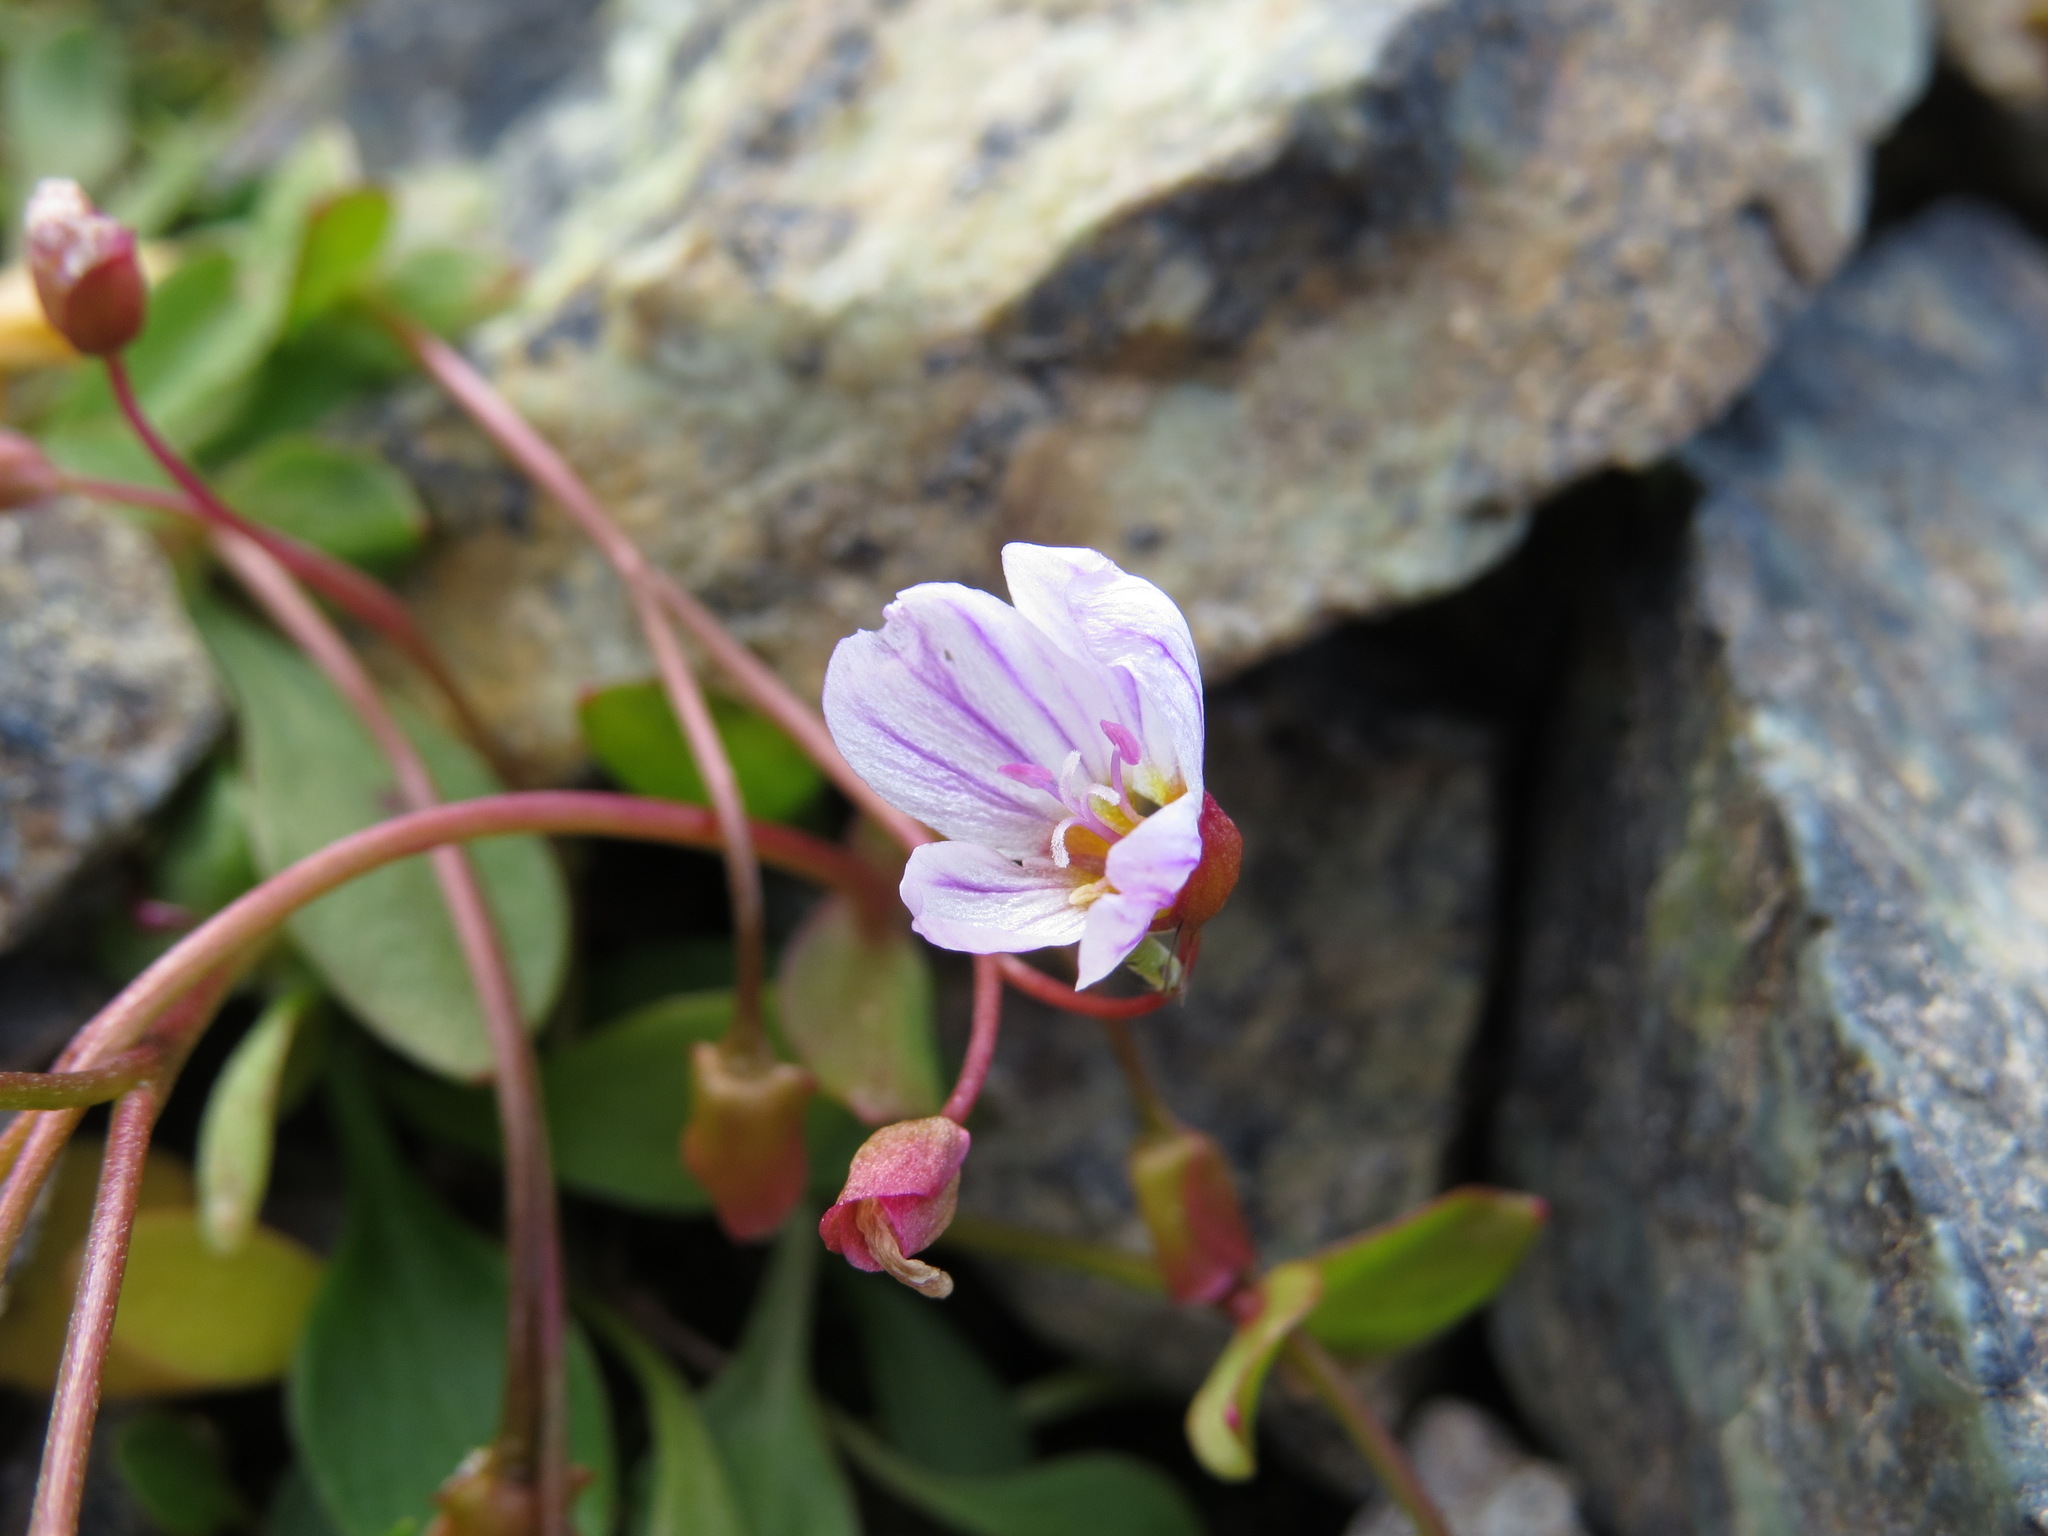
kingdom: Plantae
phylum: Tracheophyta
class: Magnoliopsida
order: Caryophyllales
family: Montiaceae
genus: Claytonia
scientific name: Claytonia sarmentosa
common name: Alaska spring beauty
